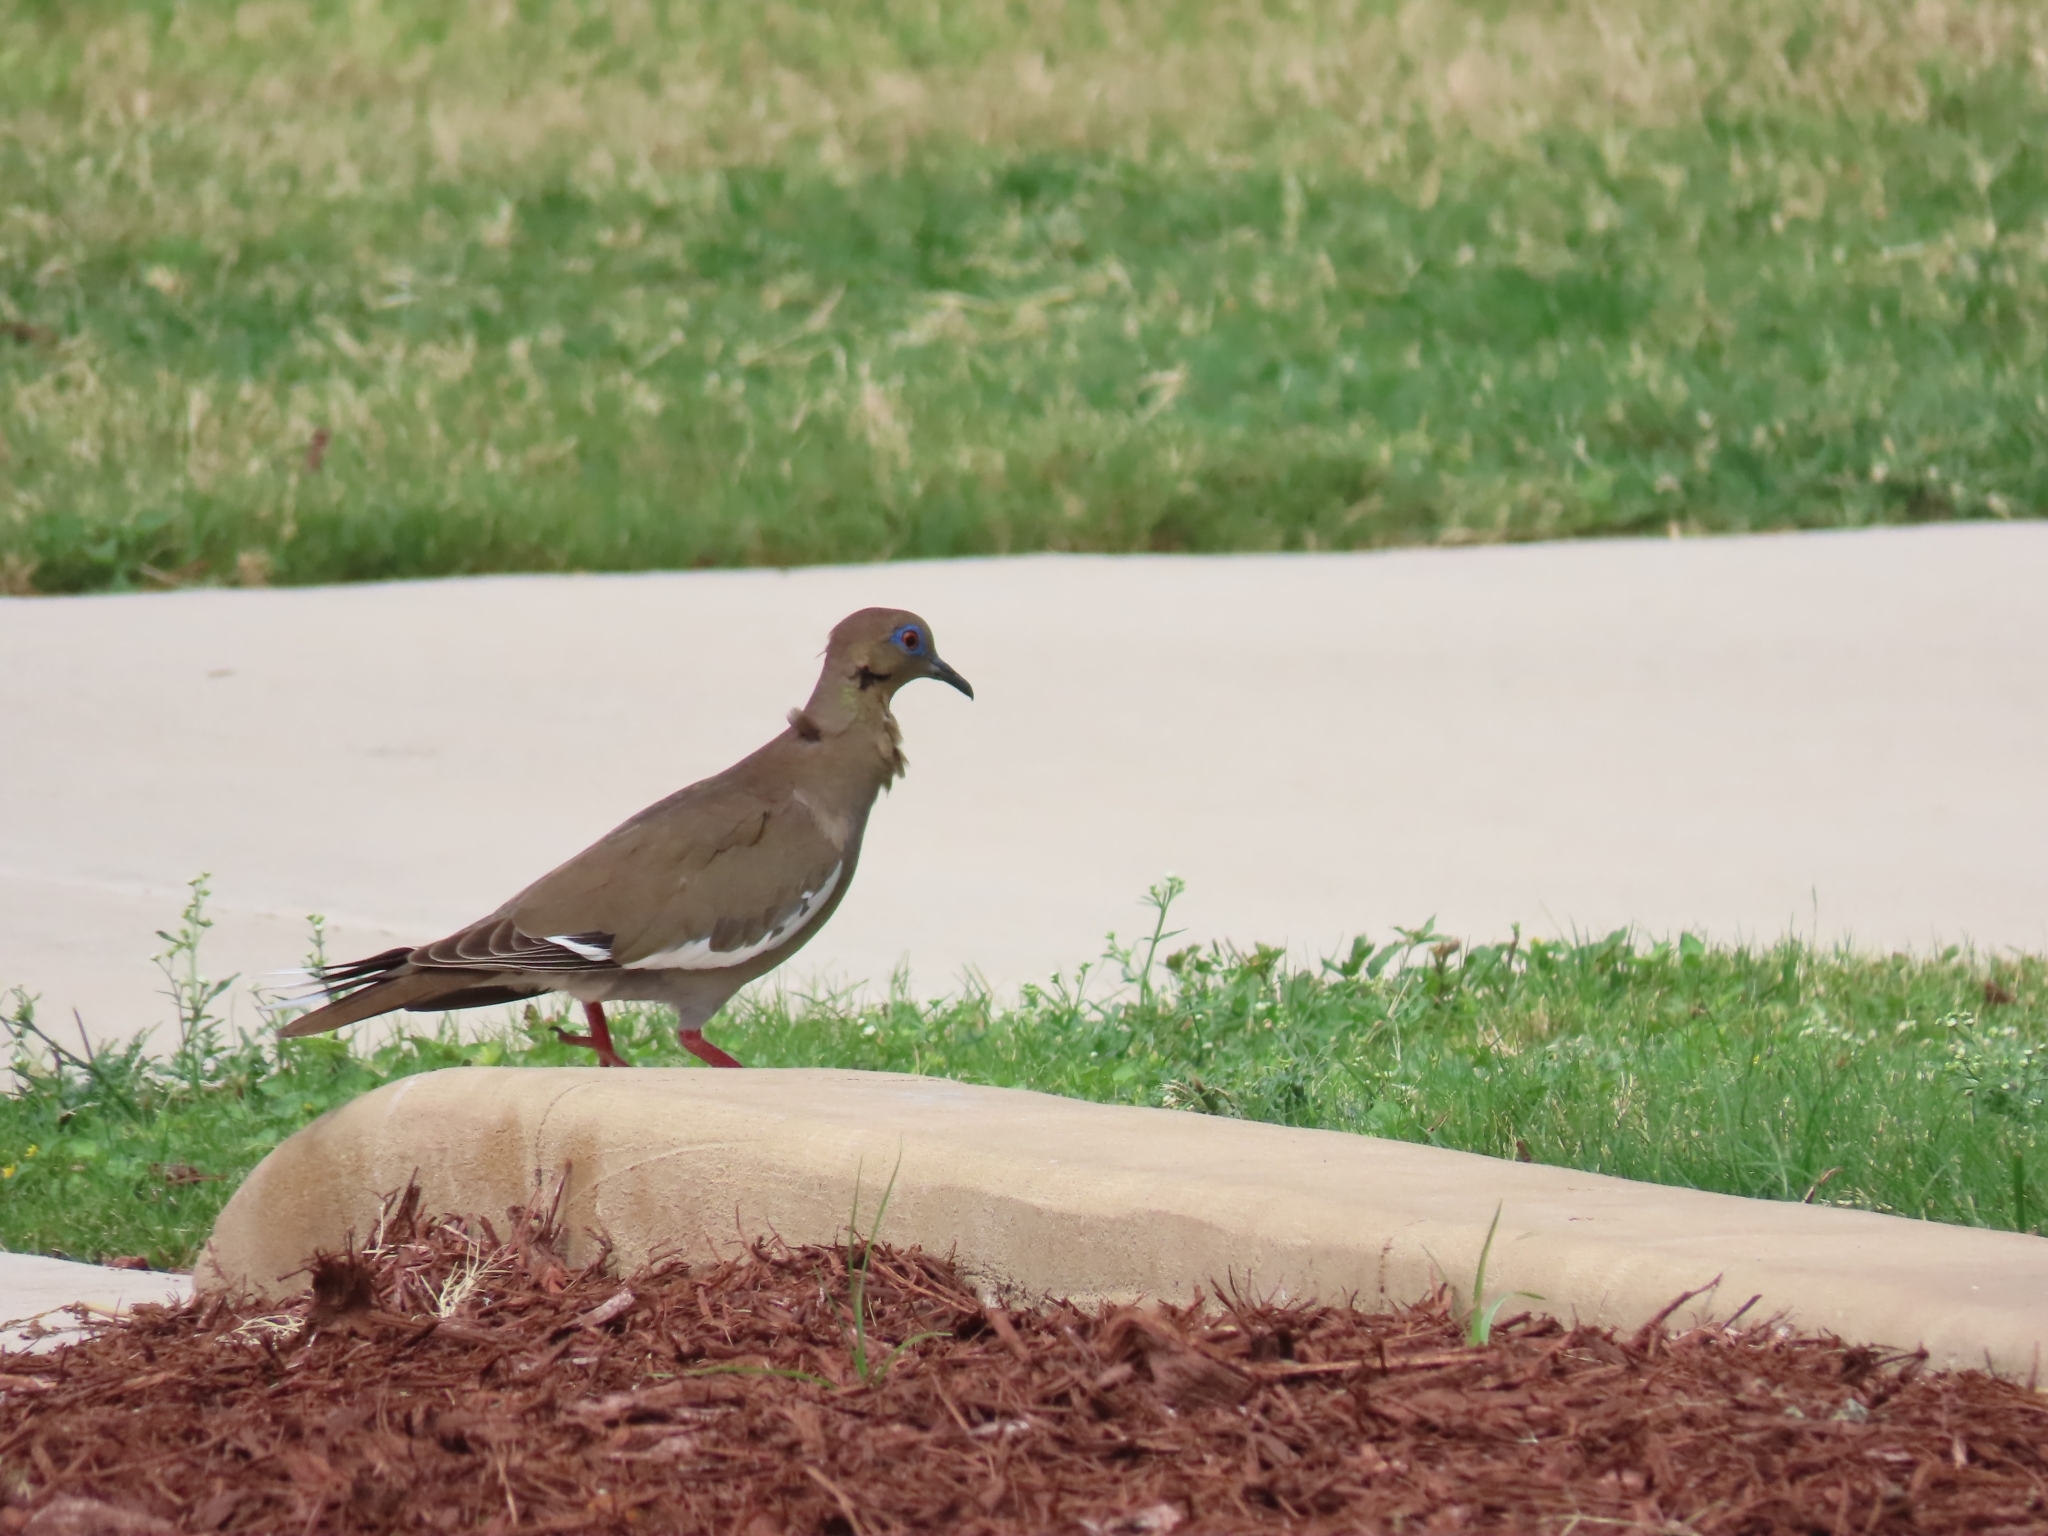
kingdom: Animalia
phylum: Chordata
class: Aves
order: Columbiformes
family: Columbidae
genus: Zenaida
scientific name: Zenaida asiatica
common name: White-winged dove
